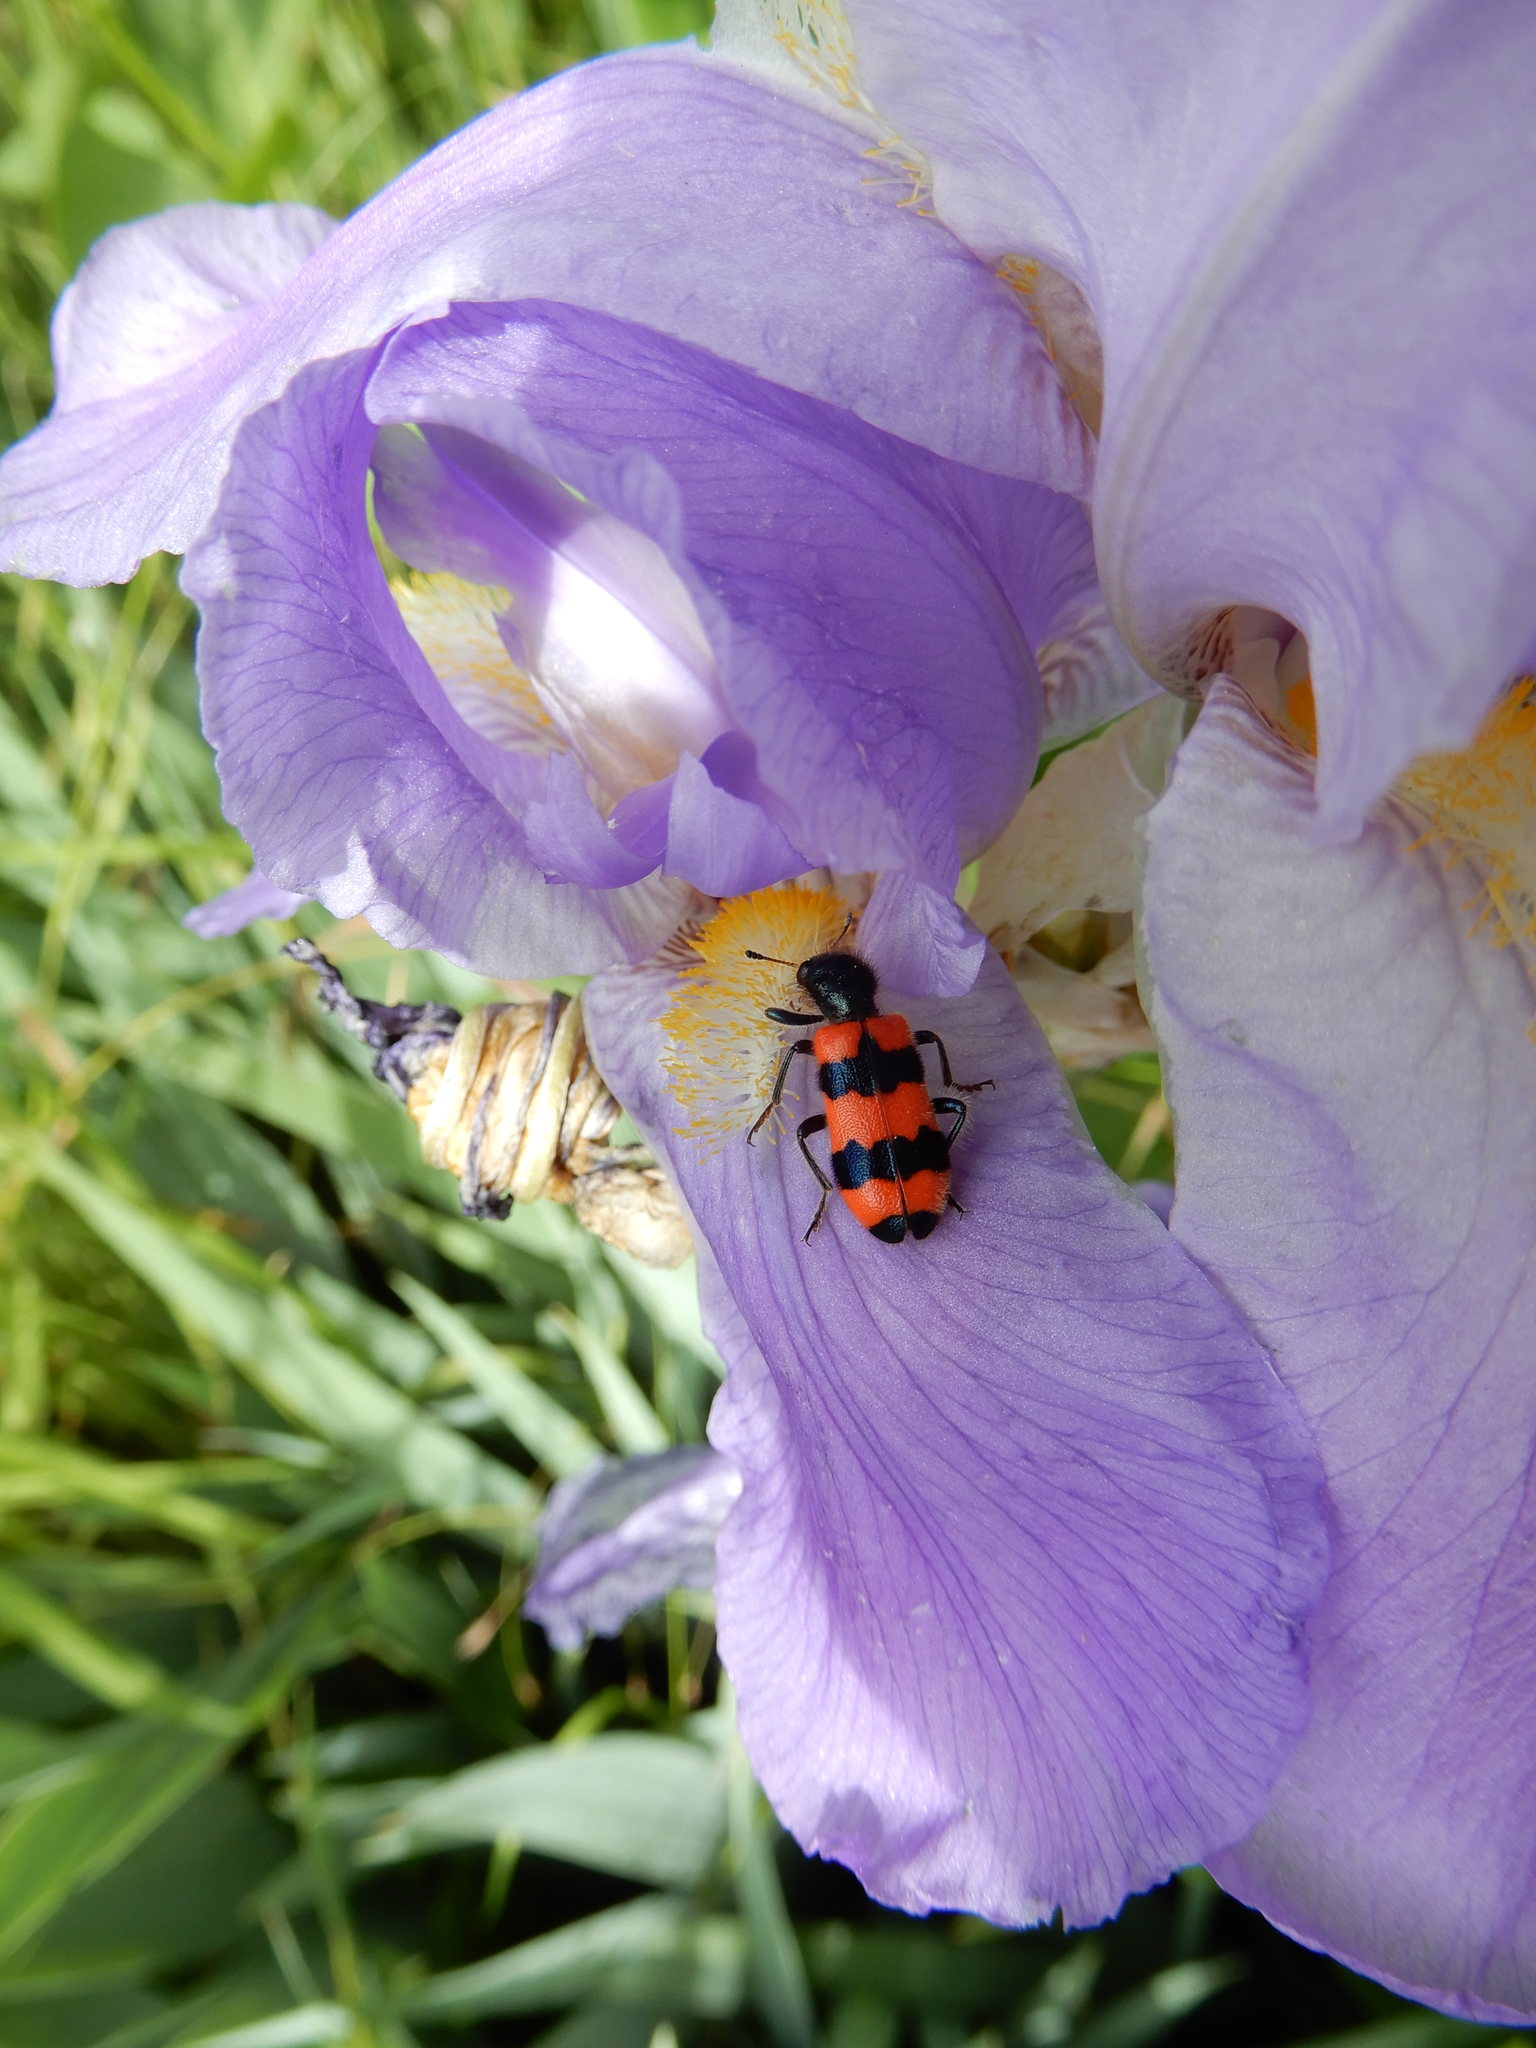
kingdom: Animalia
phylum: Arthropoda
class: Insecta
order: Coleoptera
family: Cleridae
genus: Trichodes
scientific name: Trichodes apiarius
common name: Bee-eating beetle
